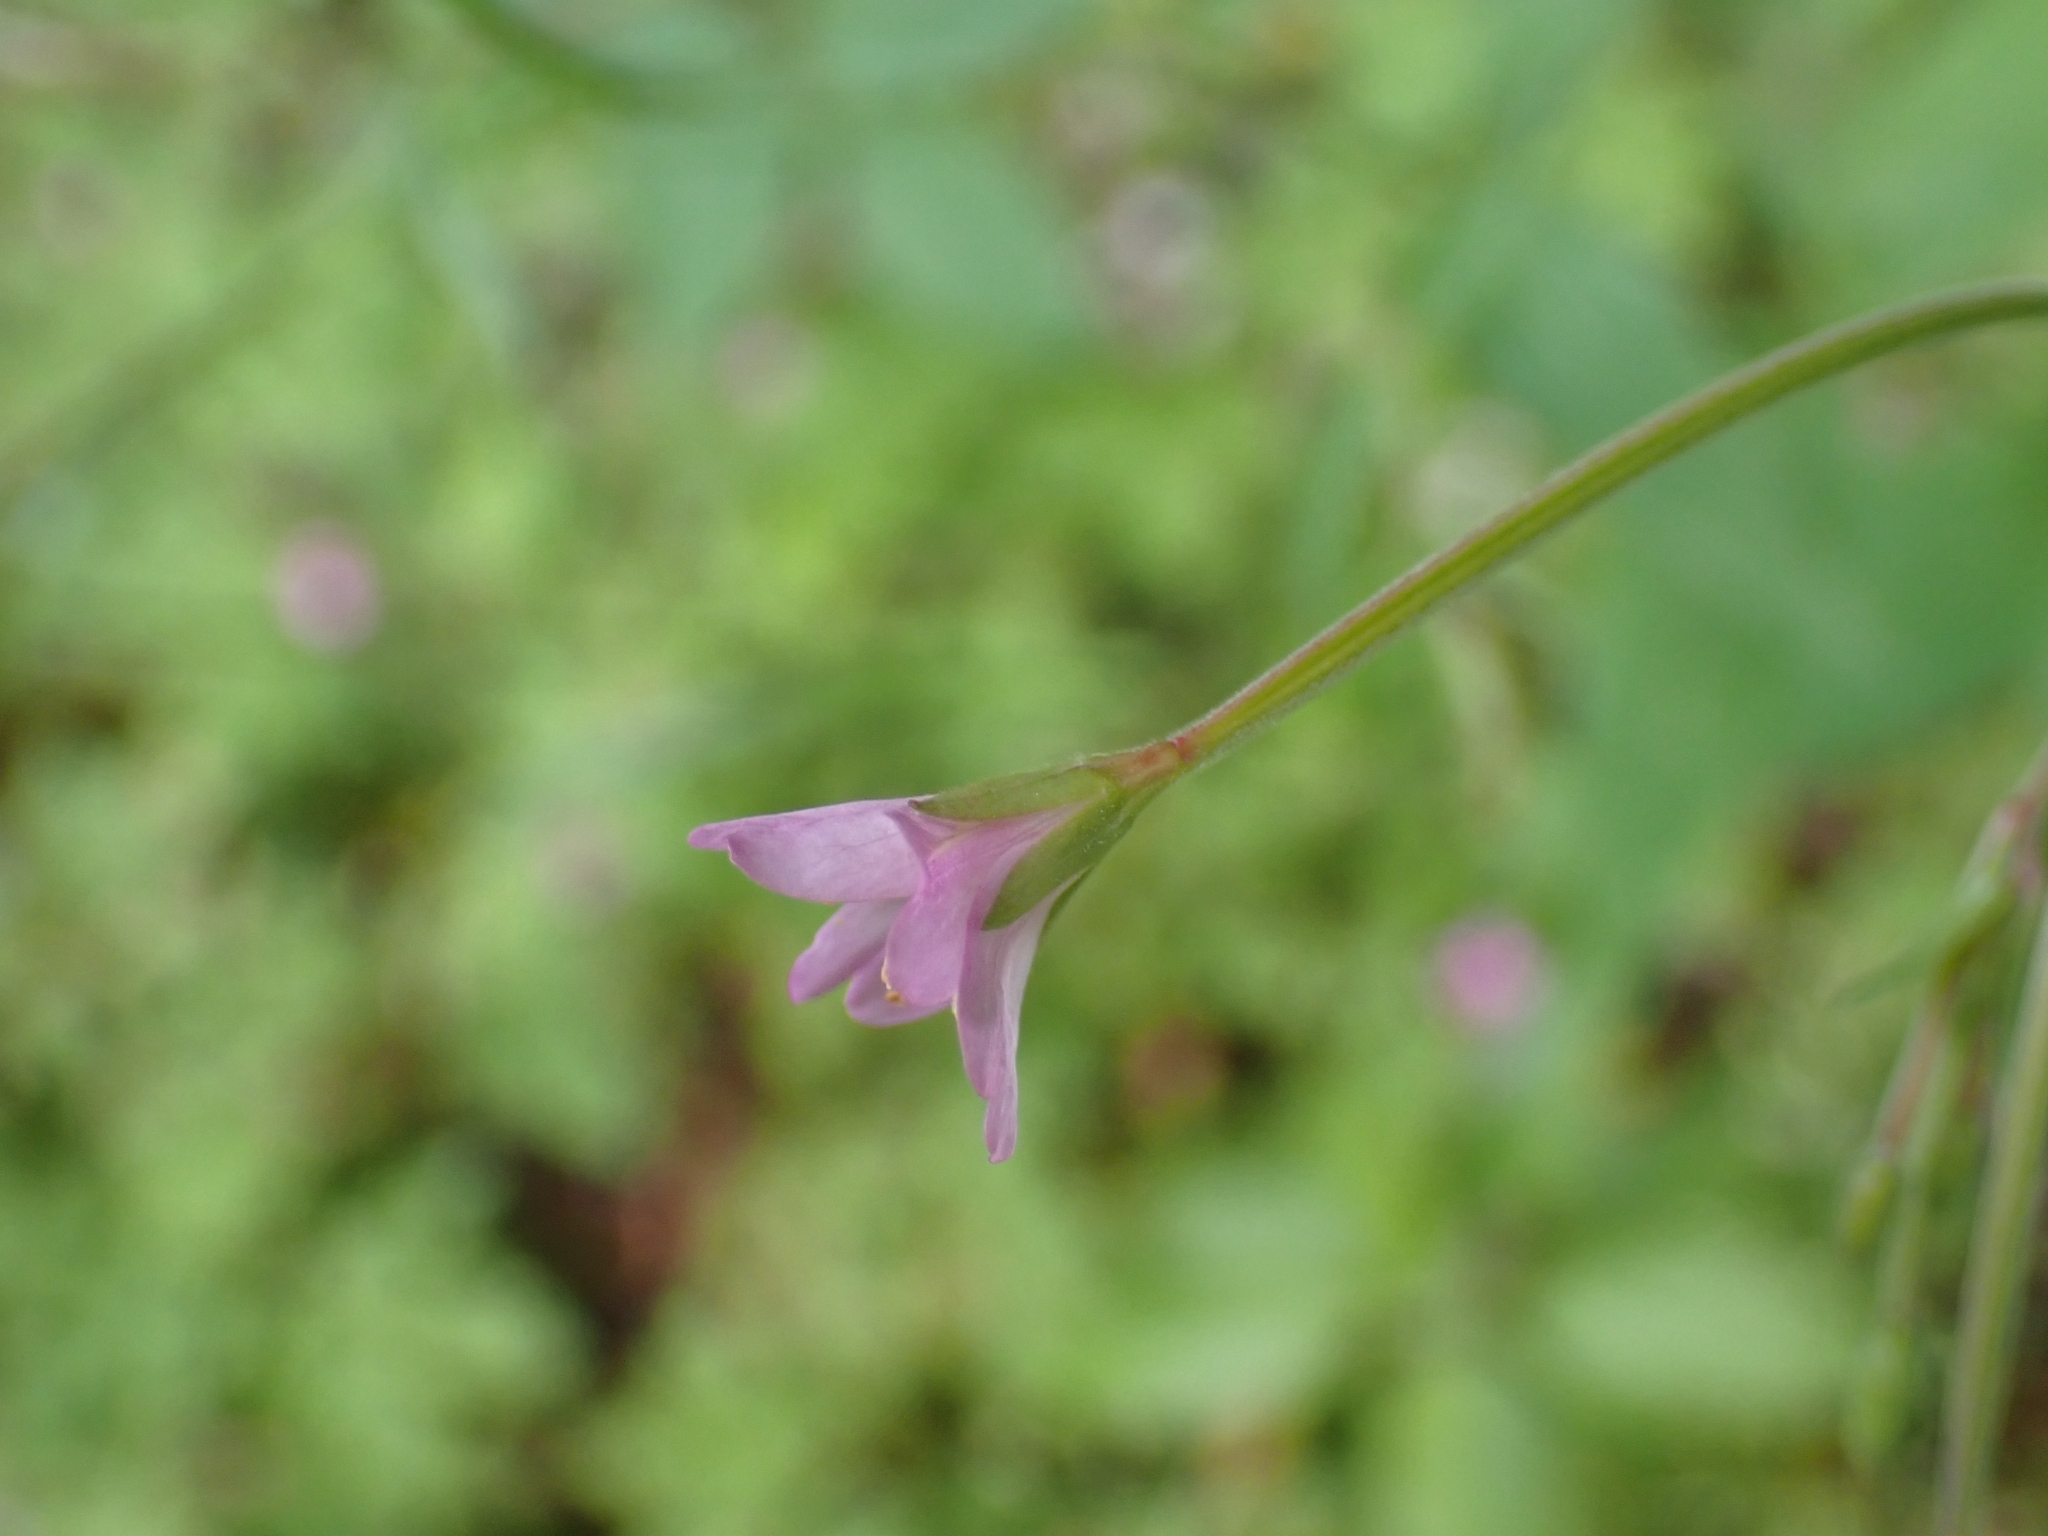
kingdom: Plantae
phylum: Tracheophyta
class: Magnoliopsida
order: Myrtales
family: Onagraceae
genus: Epilobium
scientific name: Epilobium montanum
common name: Broad-leaved willowherb
